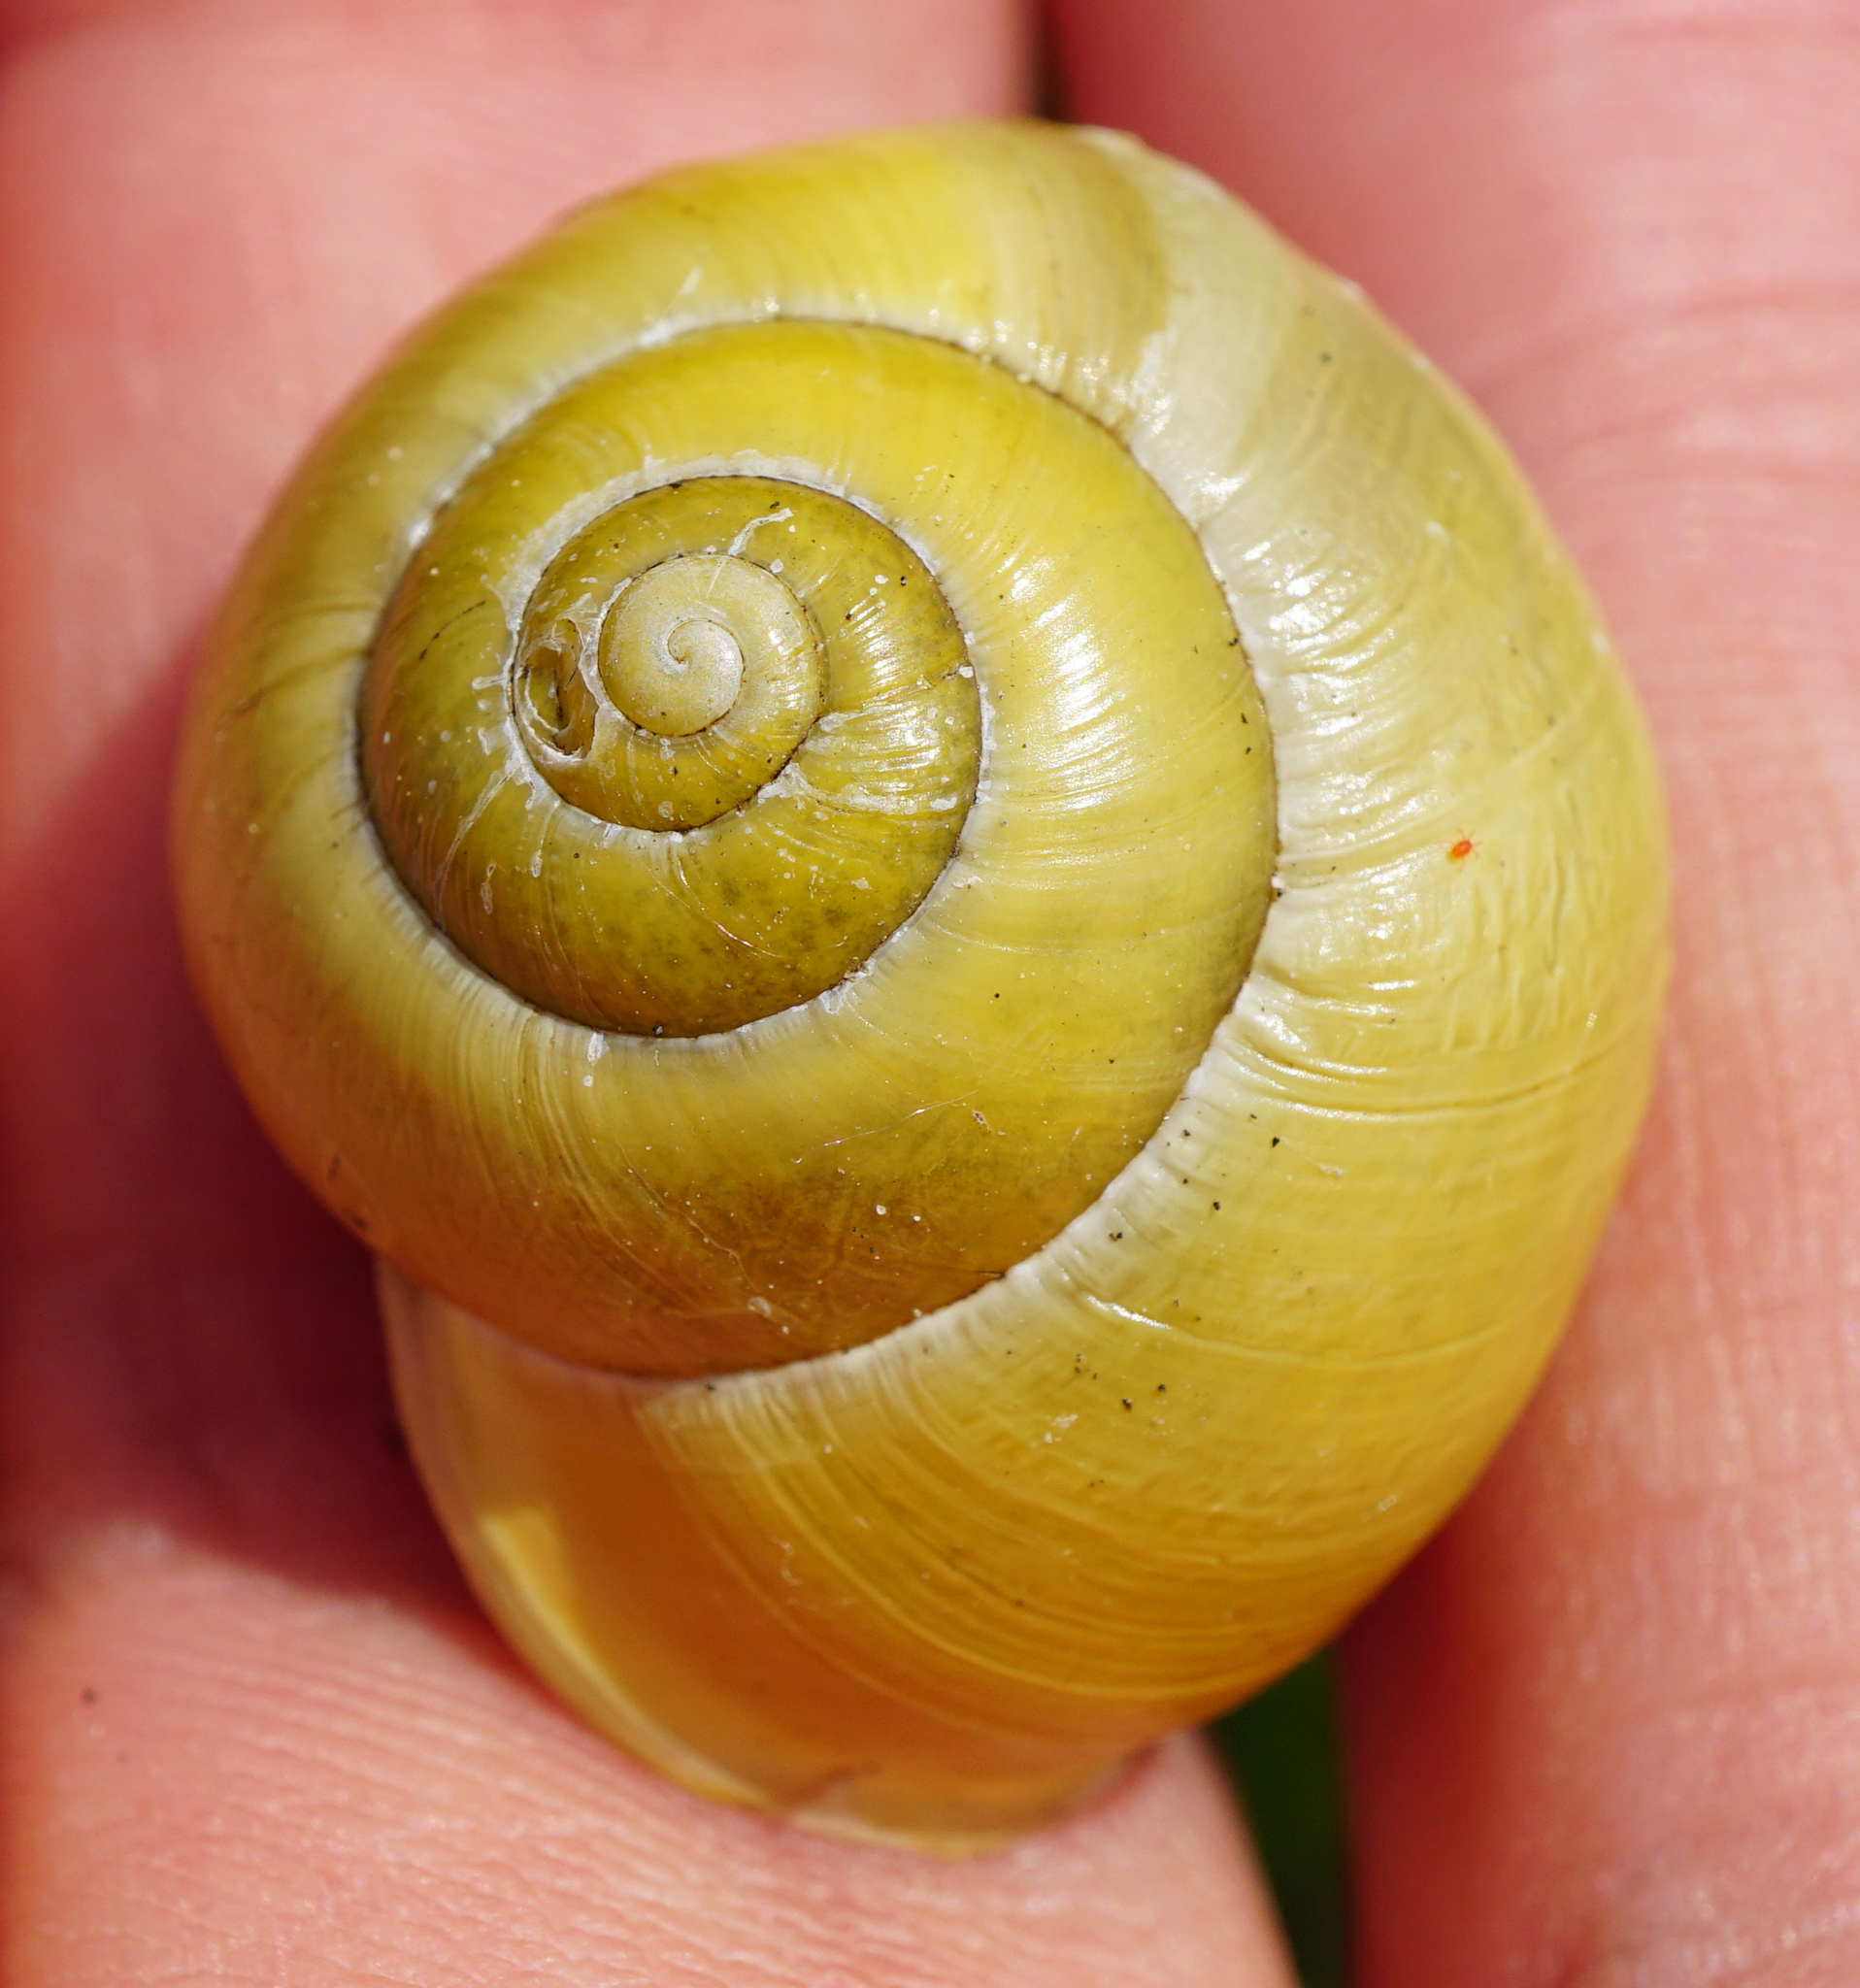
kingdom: Animalia
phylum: Mollusca
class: Gastropoda
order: Stylommatophora
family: Helicidae
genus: Cepaea
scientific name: Cepaea hortensis
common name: White-lip gardensnail
